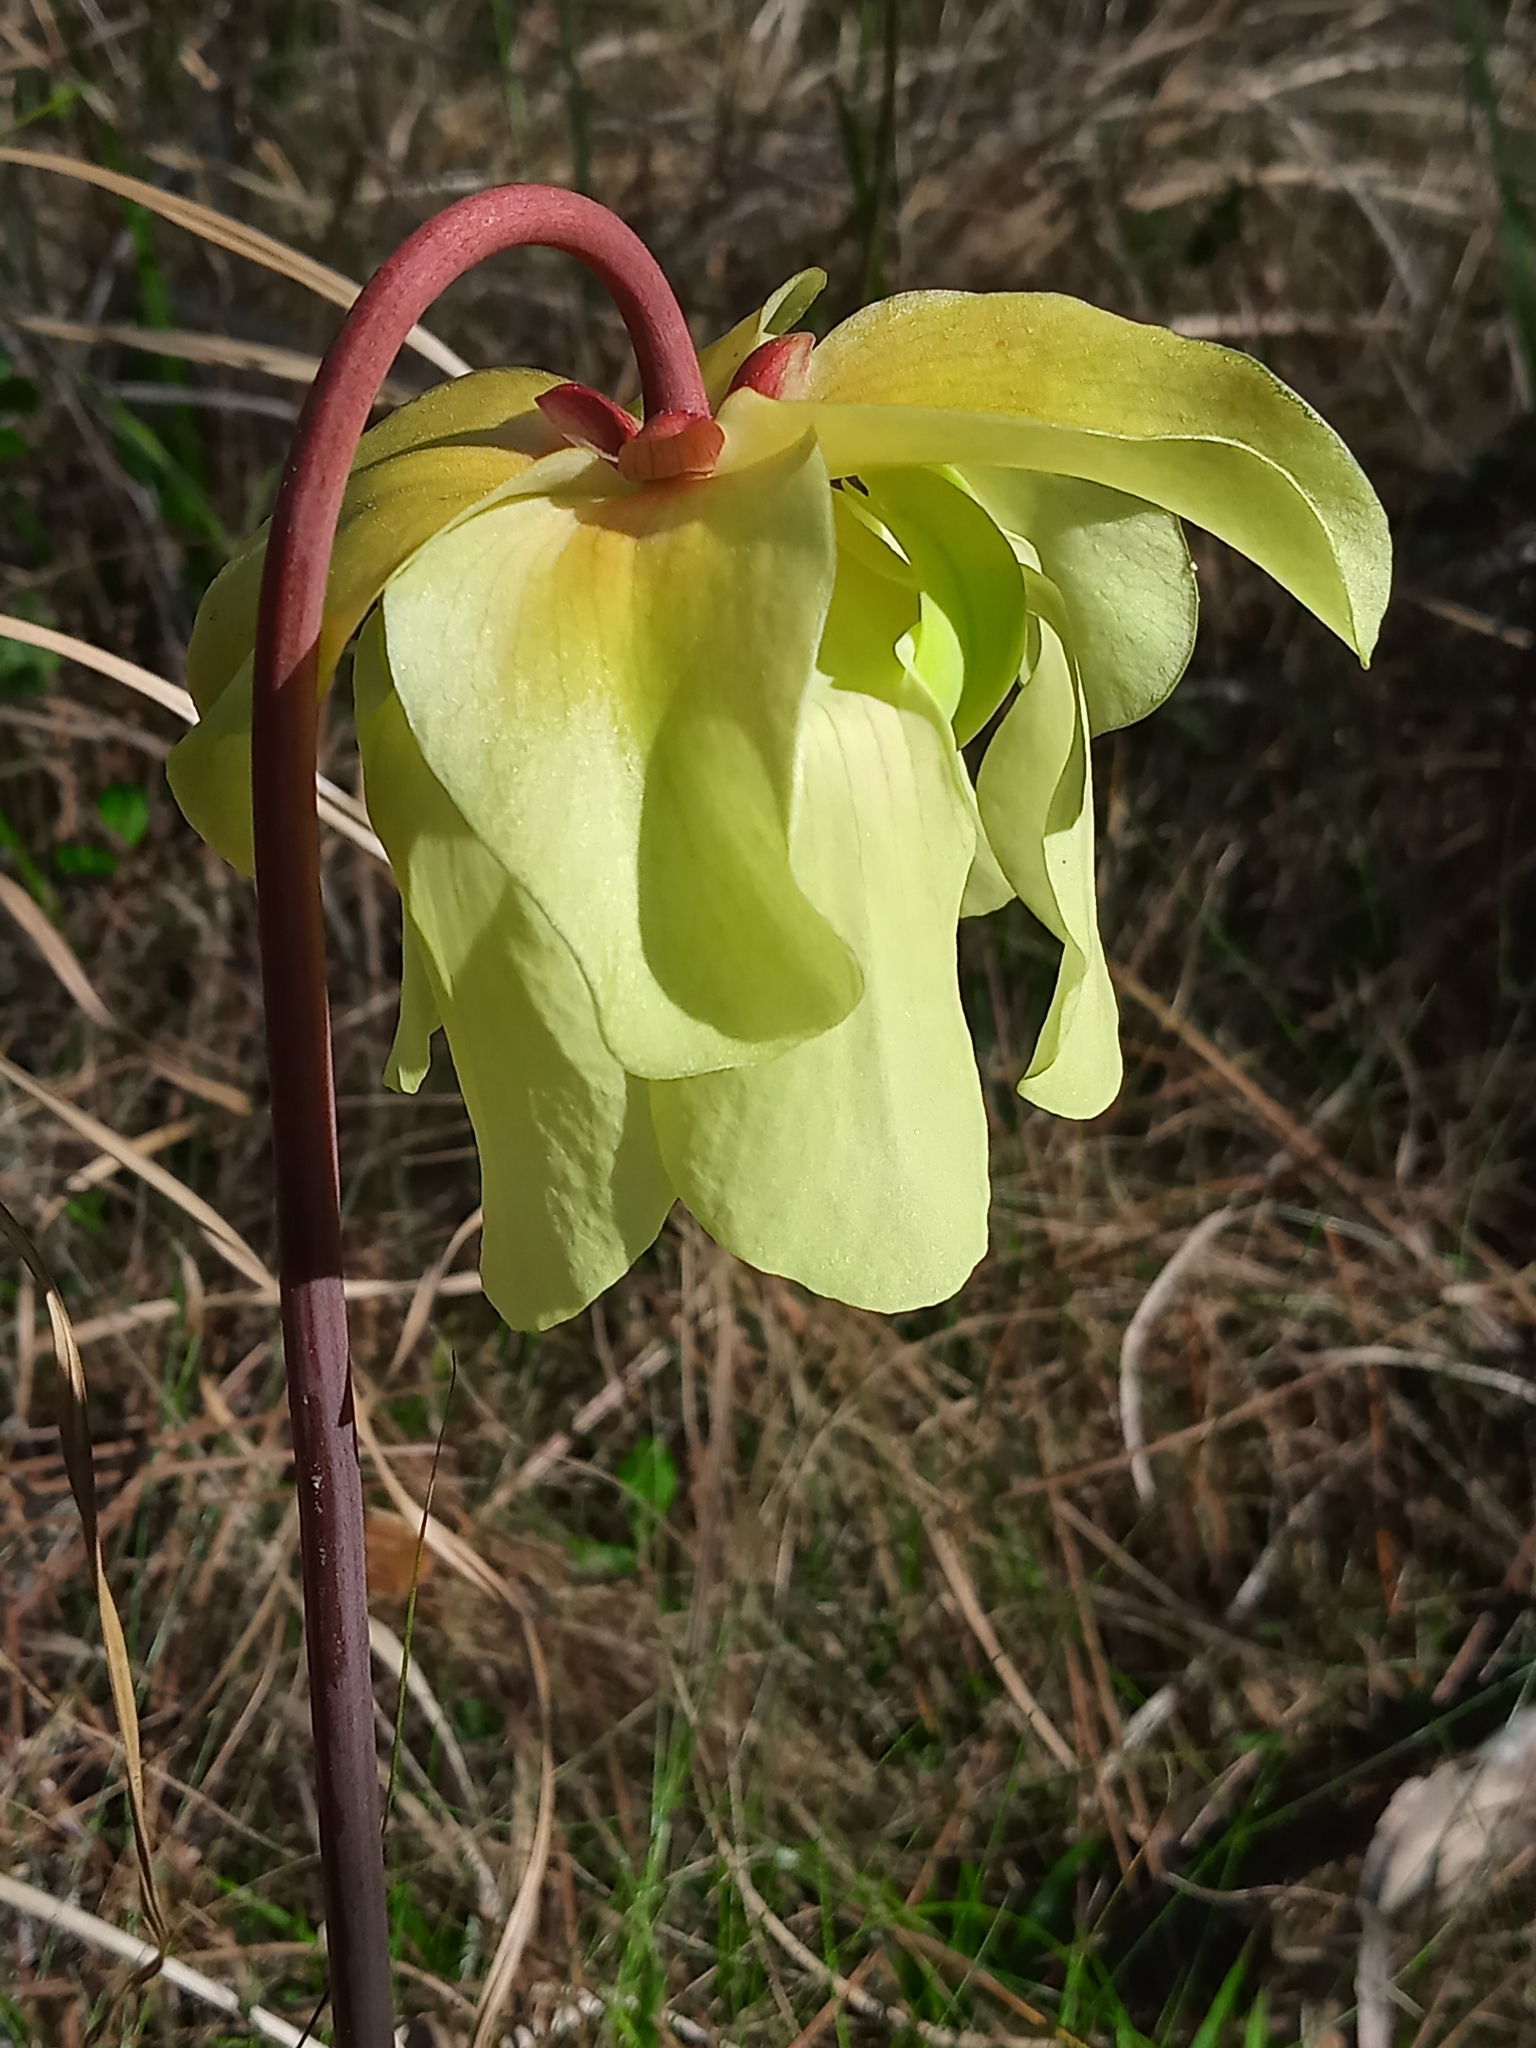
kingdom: Plantae
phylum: Tracheophyta
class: Magnoliopsida
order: Ericales
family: Sarraceniaceae
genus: Sarracenia
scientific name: Sarracenia alata
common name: Yellow trumpets
